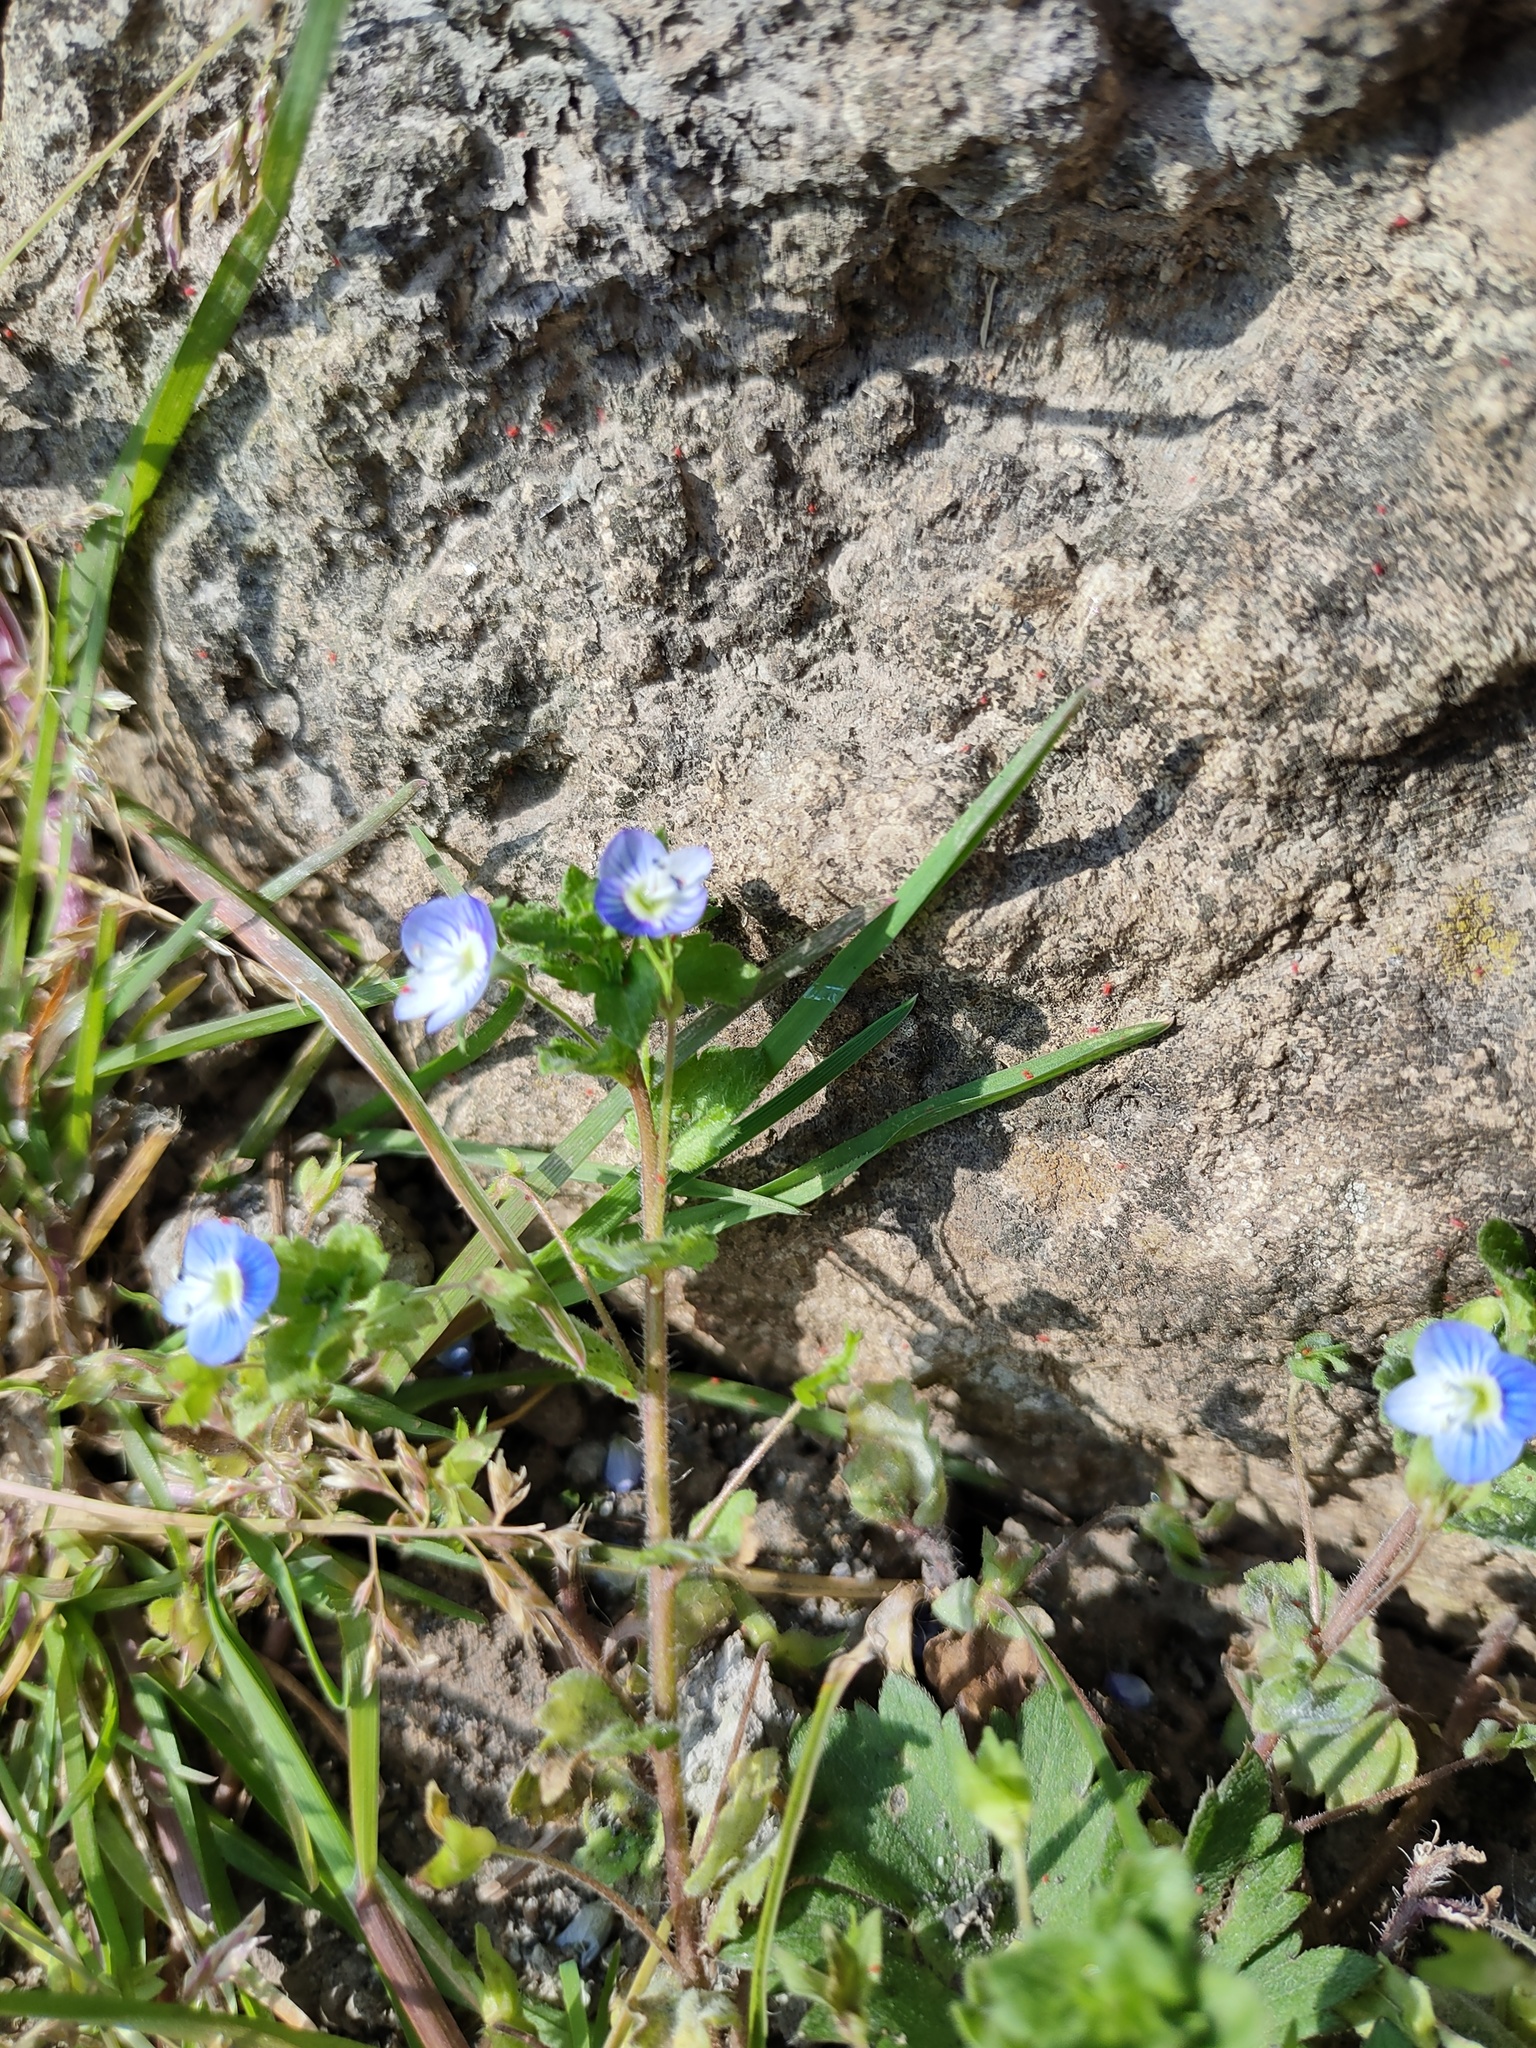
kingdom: Plantae
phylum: Tracheophyta
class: Magnoliopsida
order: Lamiales
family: Plantaginaceae
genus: Veronica
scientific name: Veronica persica
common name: Common field-speedwell
